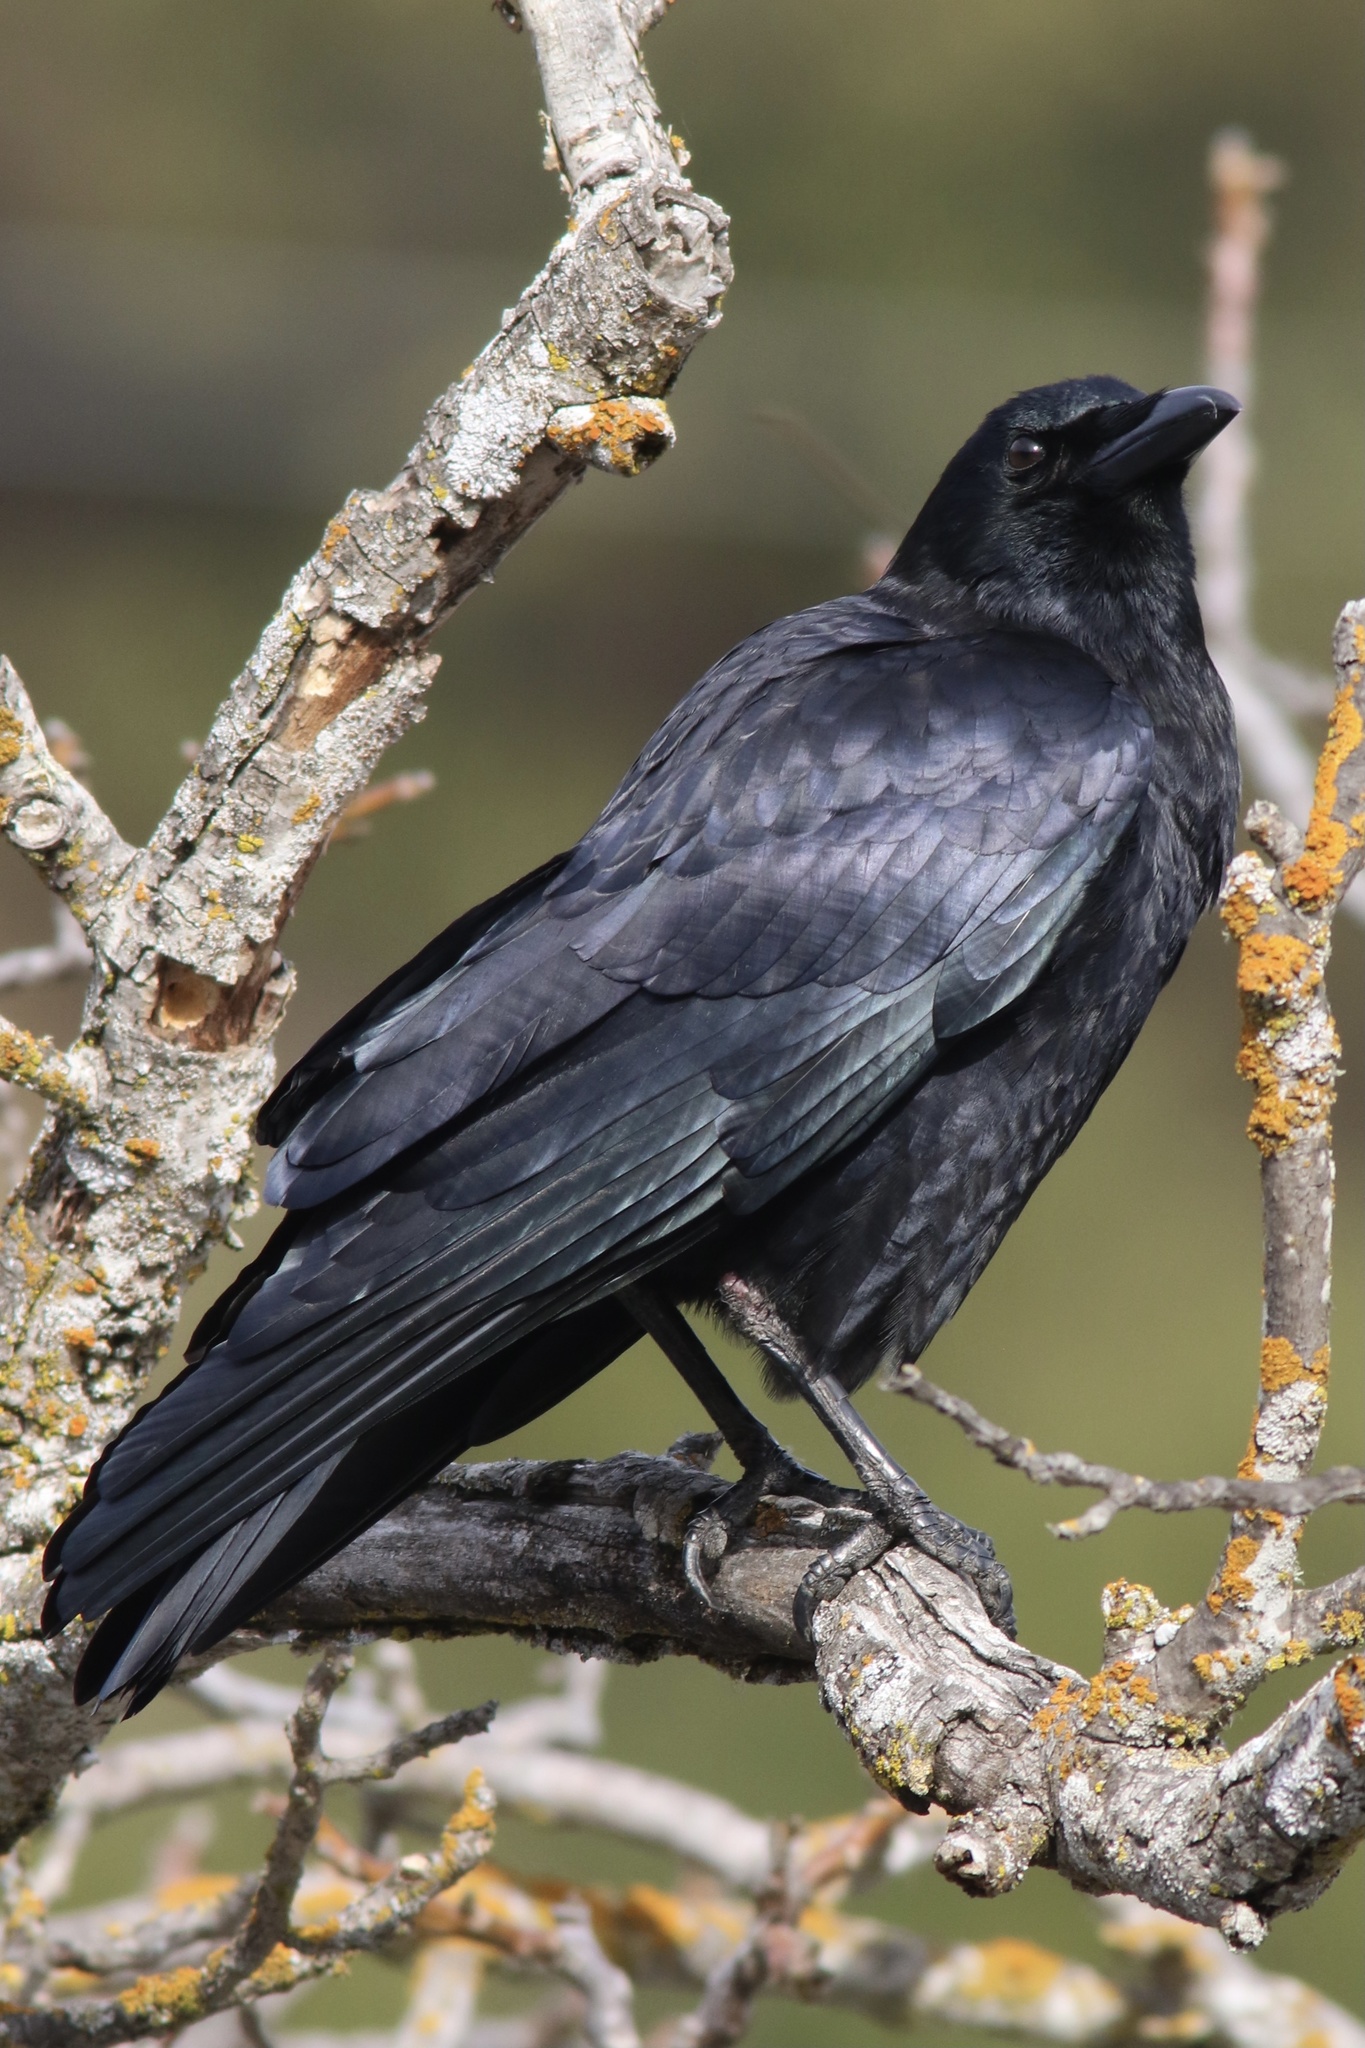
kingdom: Animalia
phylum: Chordata
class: Aves
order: Passeriformes
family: Corvidae
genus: Corvus
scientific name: Corvus brachyrhynchos
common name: American crow
